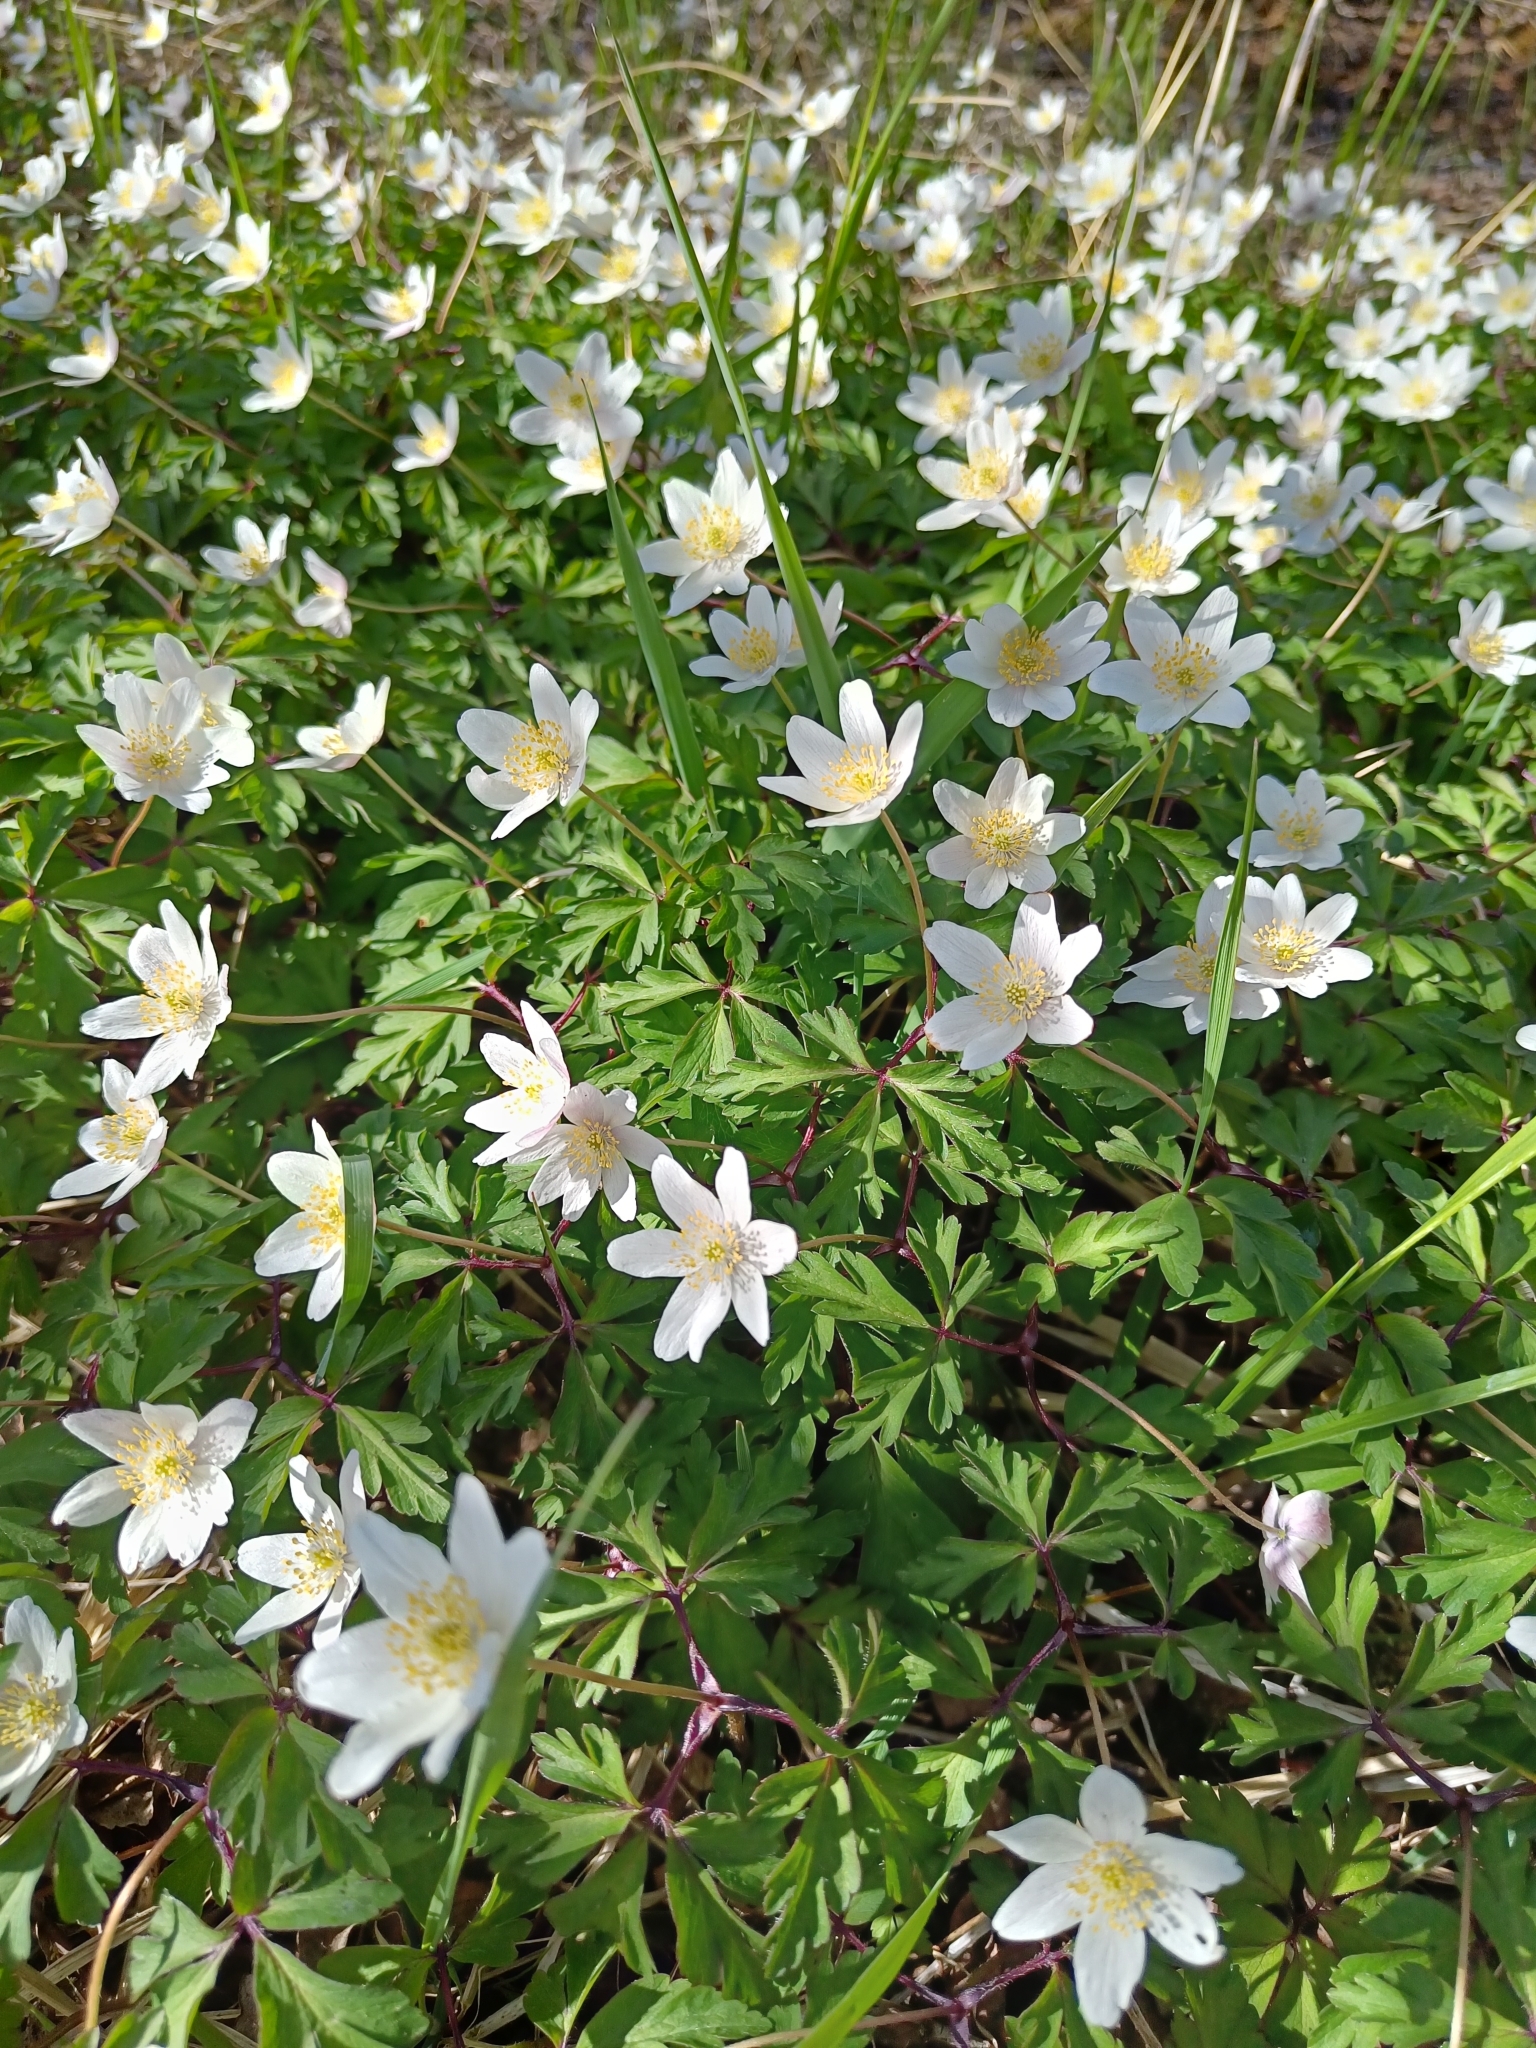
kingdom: Plantae
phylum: Tracheophyta
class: Magnoliopsida
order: Ranunculales
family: Ranunculaceae
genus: Anemone
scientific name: Anemone nemorosa
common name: Wood anemone
